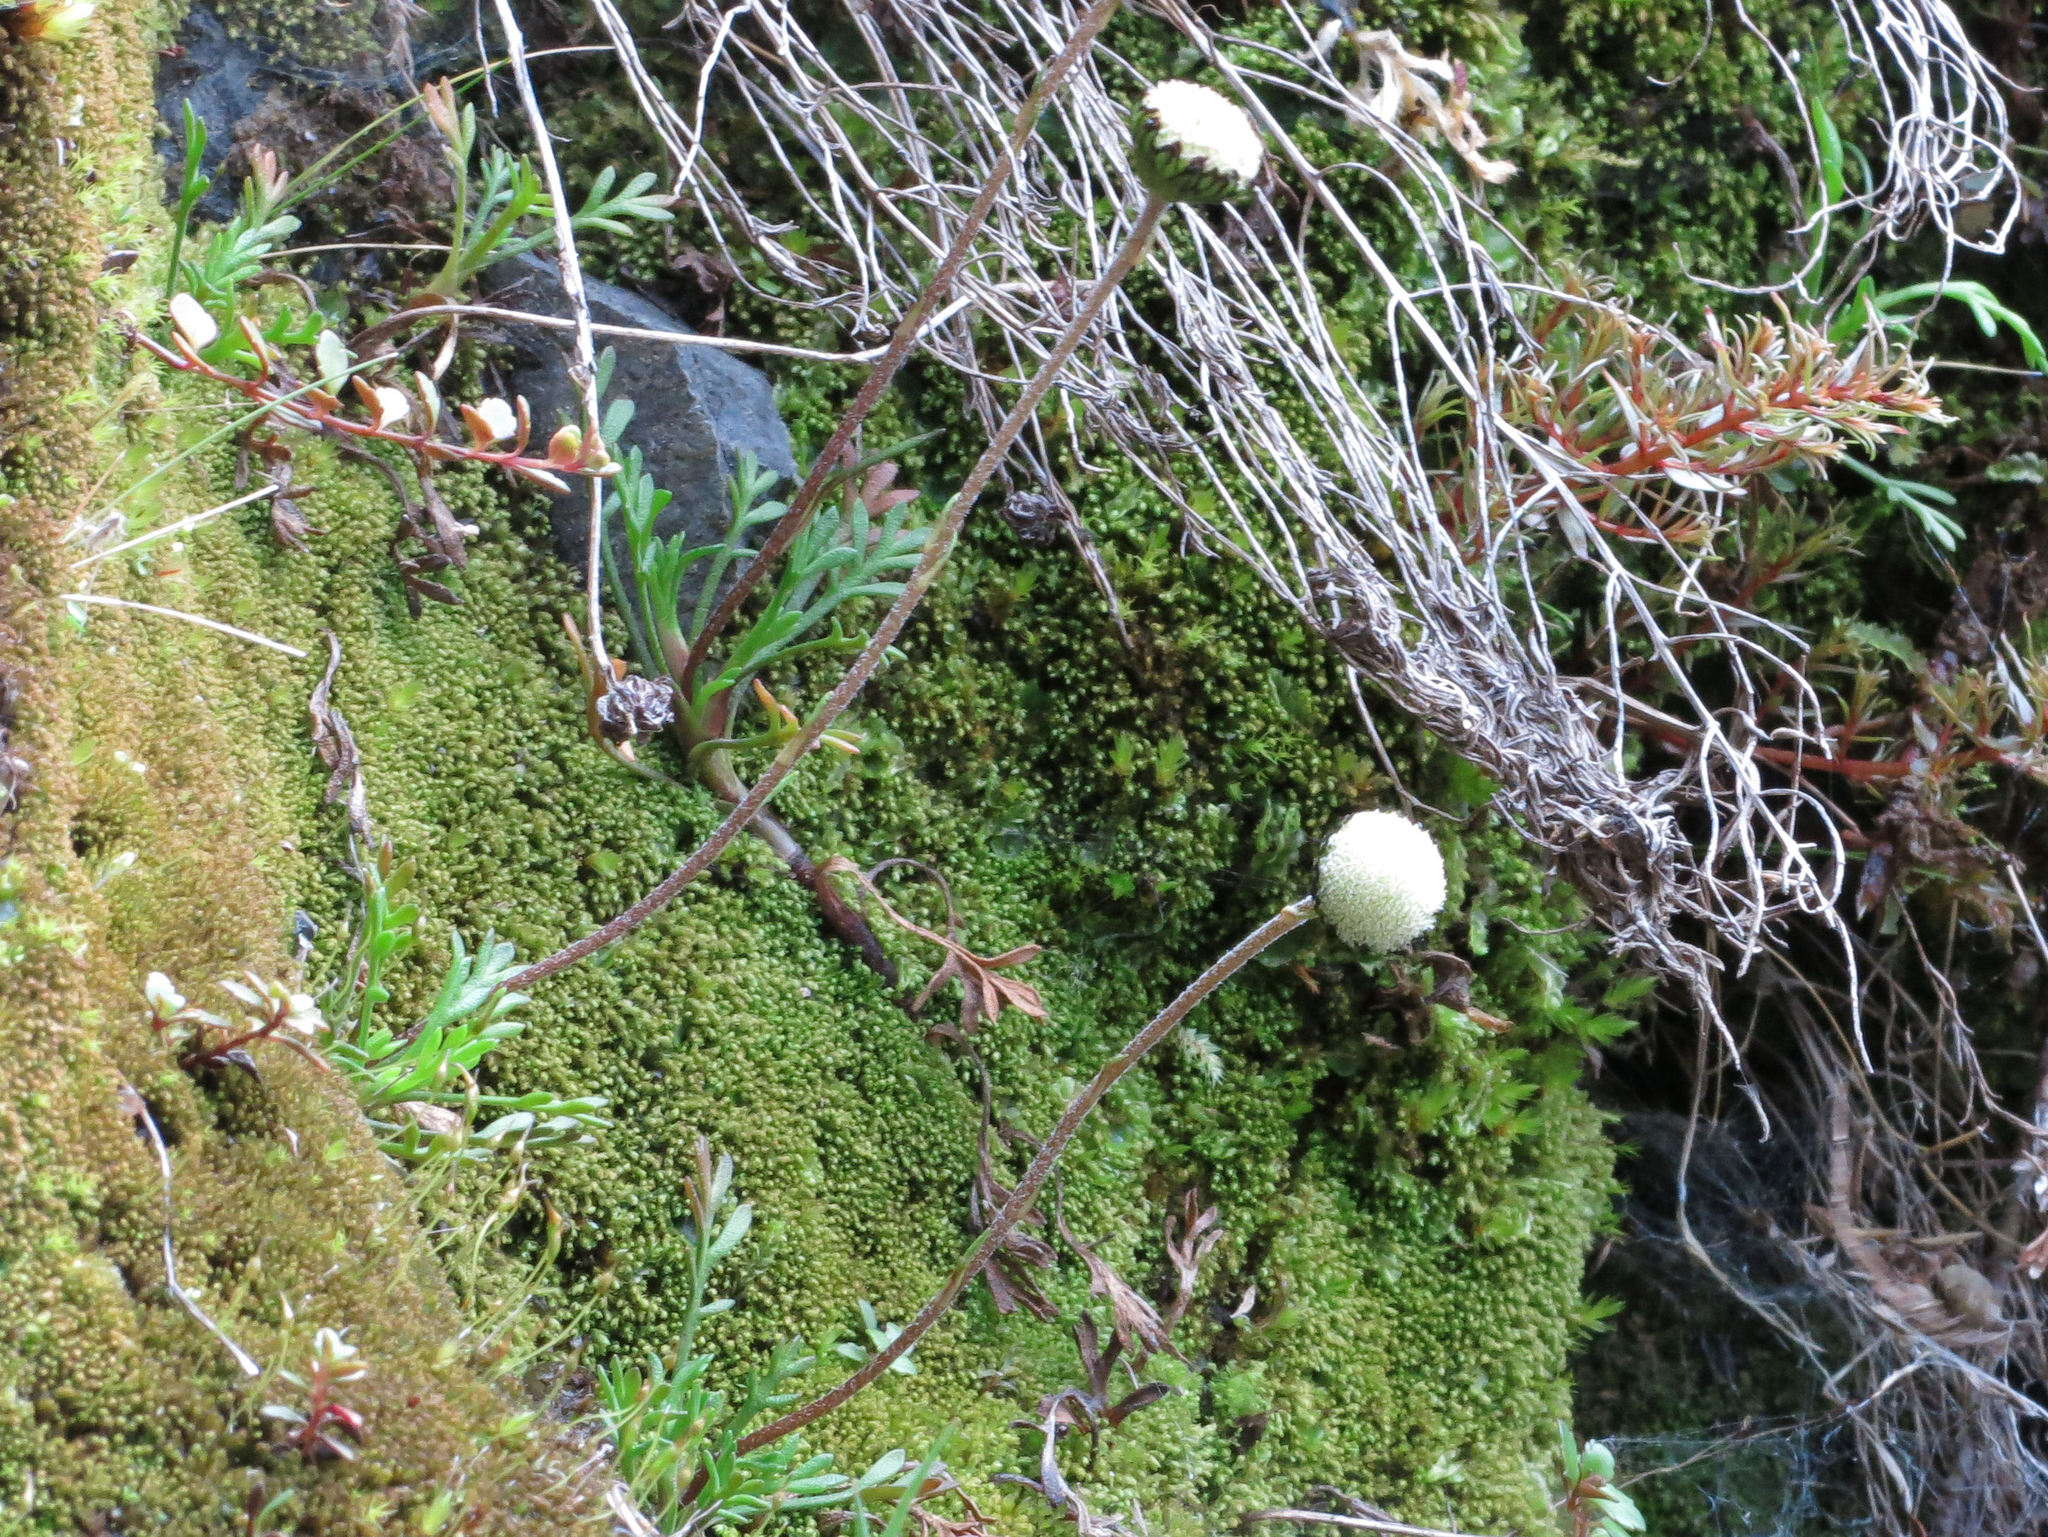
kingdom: Plantae
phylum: Tracheophyta
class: Magnoliopsida
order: Asterales
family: Asteraceae
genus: Leptinella
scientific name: Leptinella pyrethrifolia
